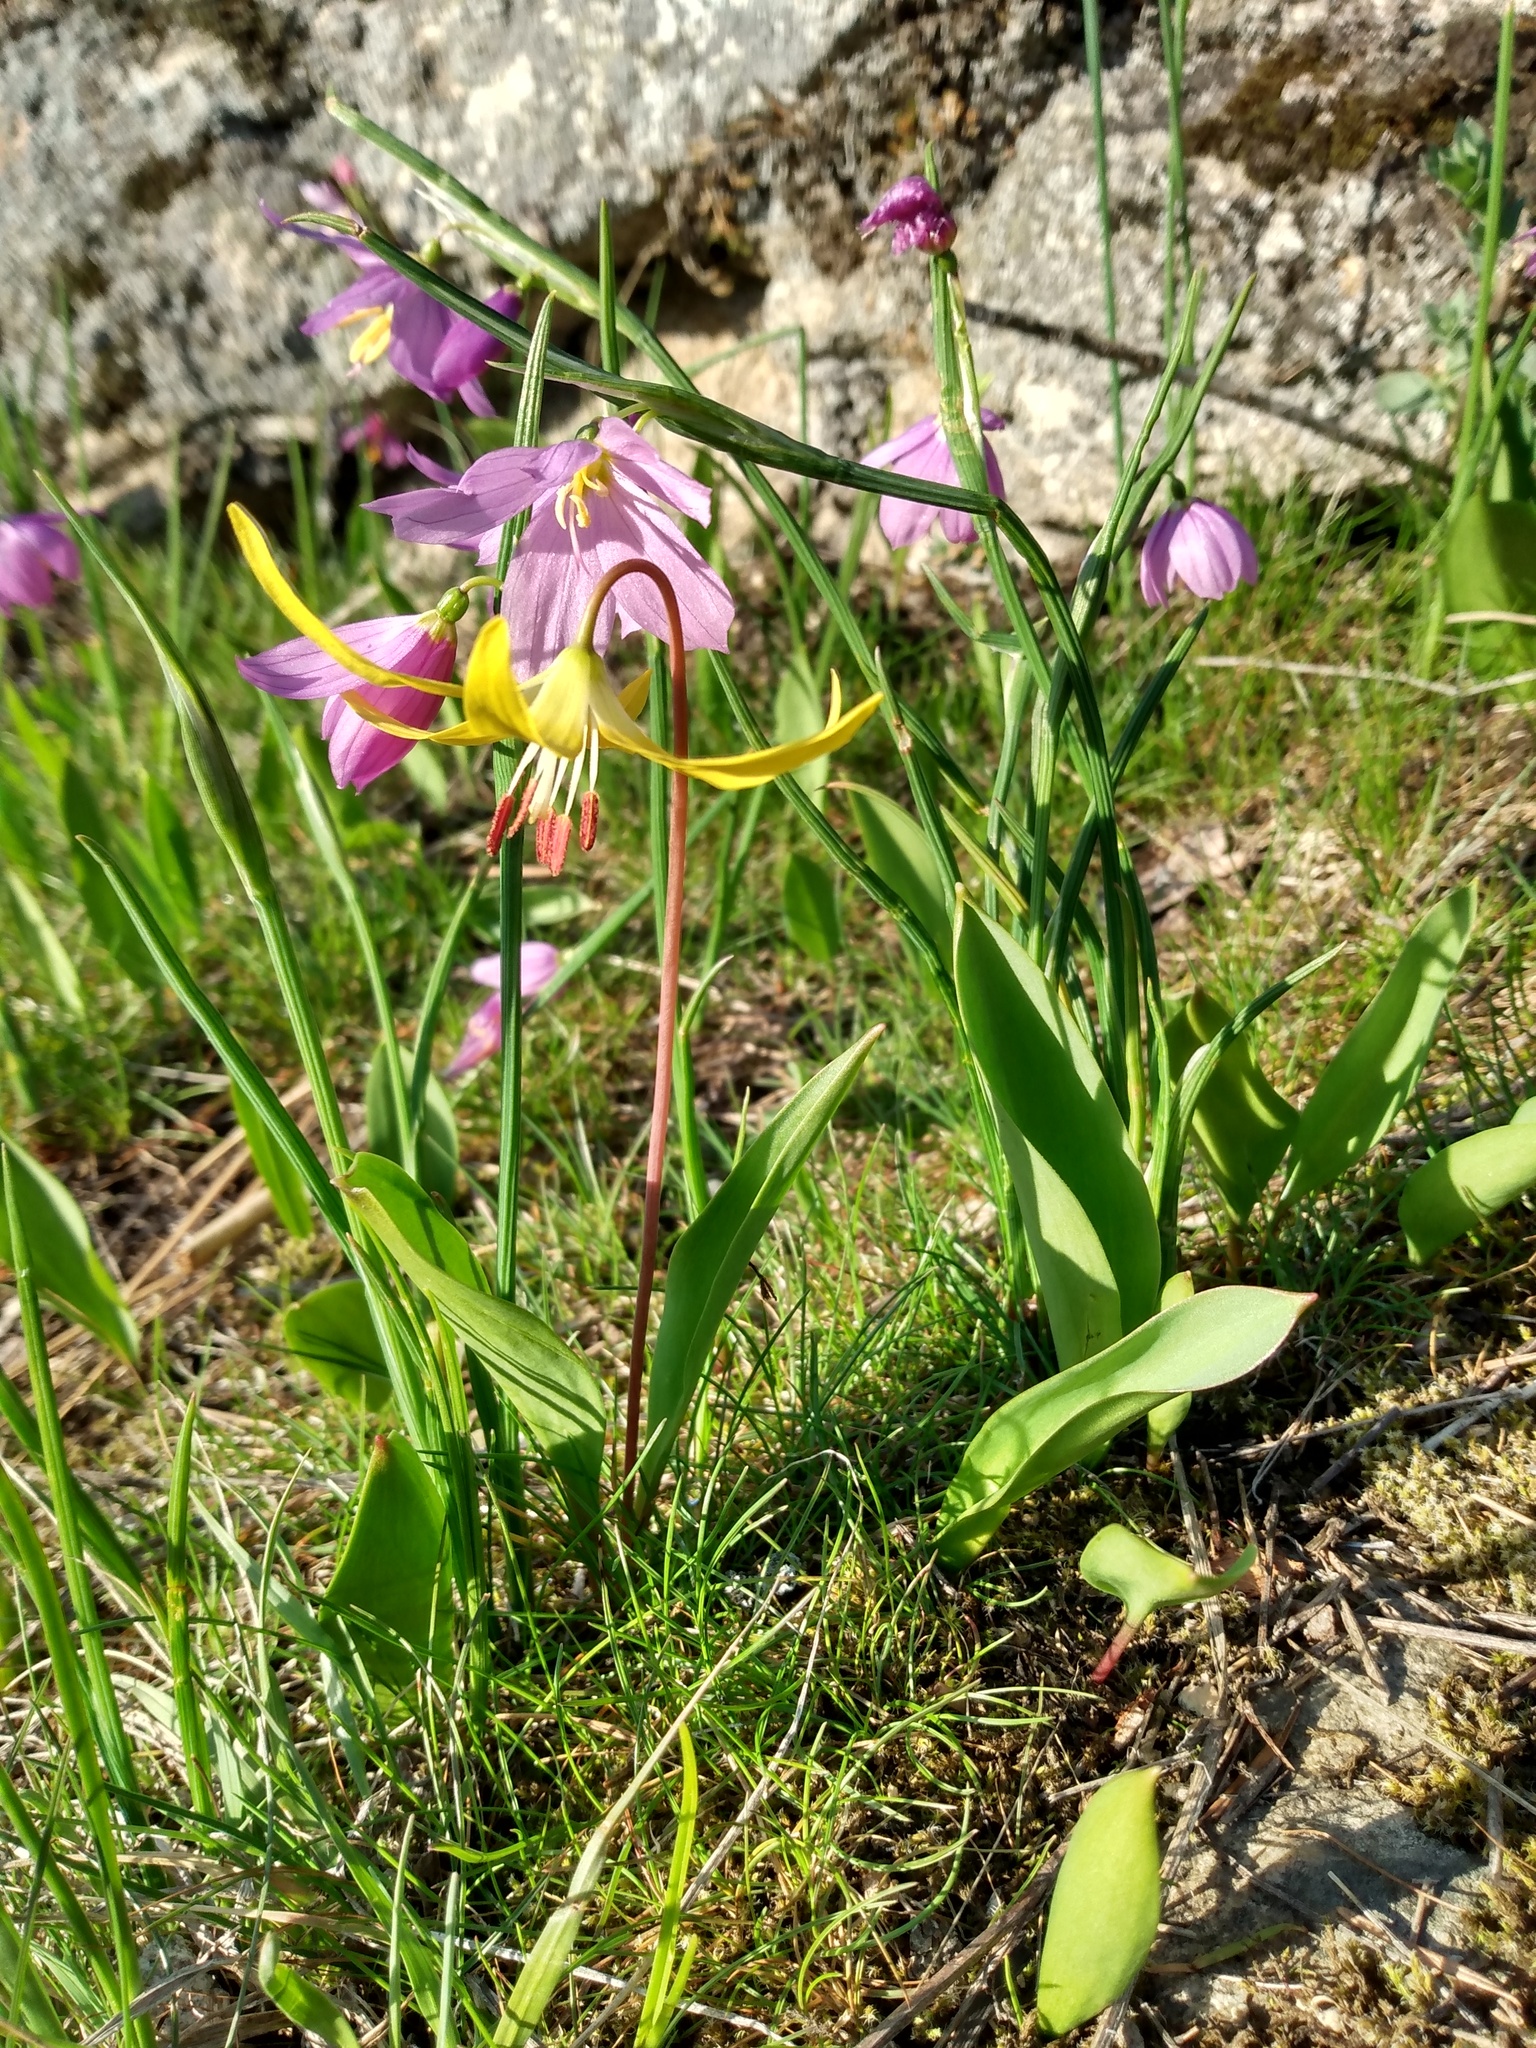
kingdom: Plantae
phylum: Tracheophyta
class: Liliopsida
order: Liliales
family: Liliaceae
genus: Erythronium
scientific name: Erythronium grandiflorum
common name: Avalanche-lily
